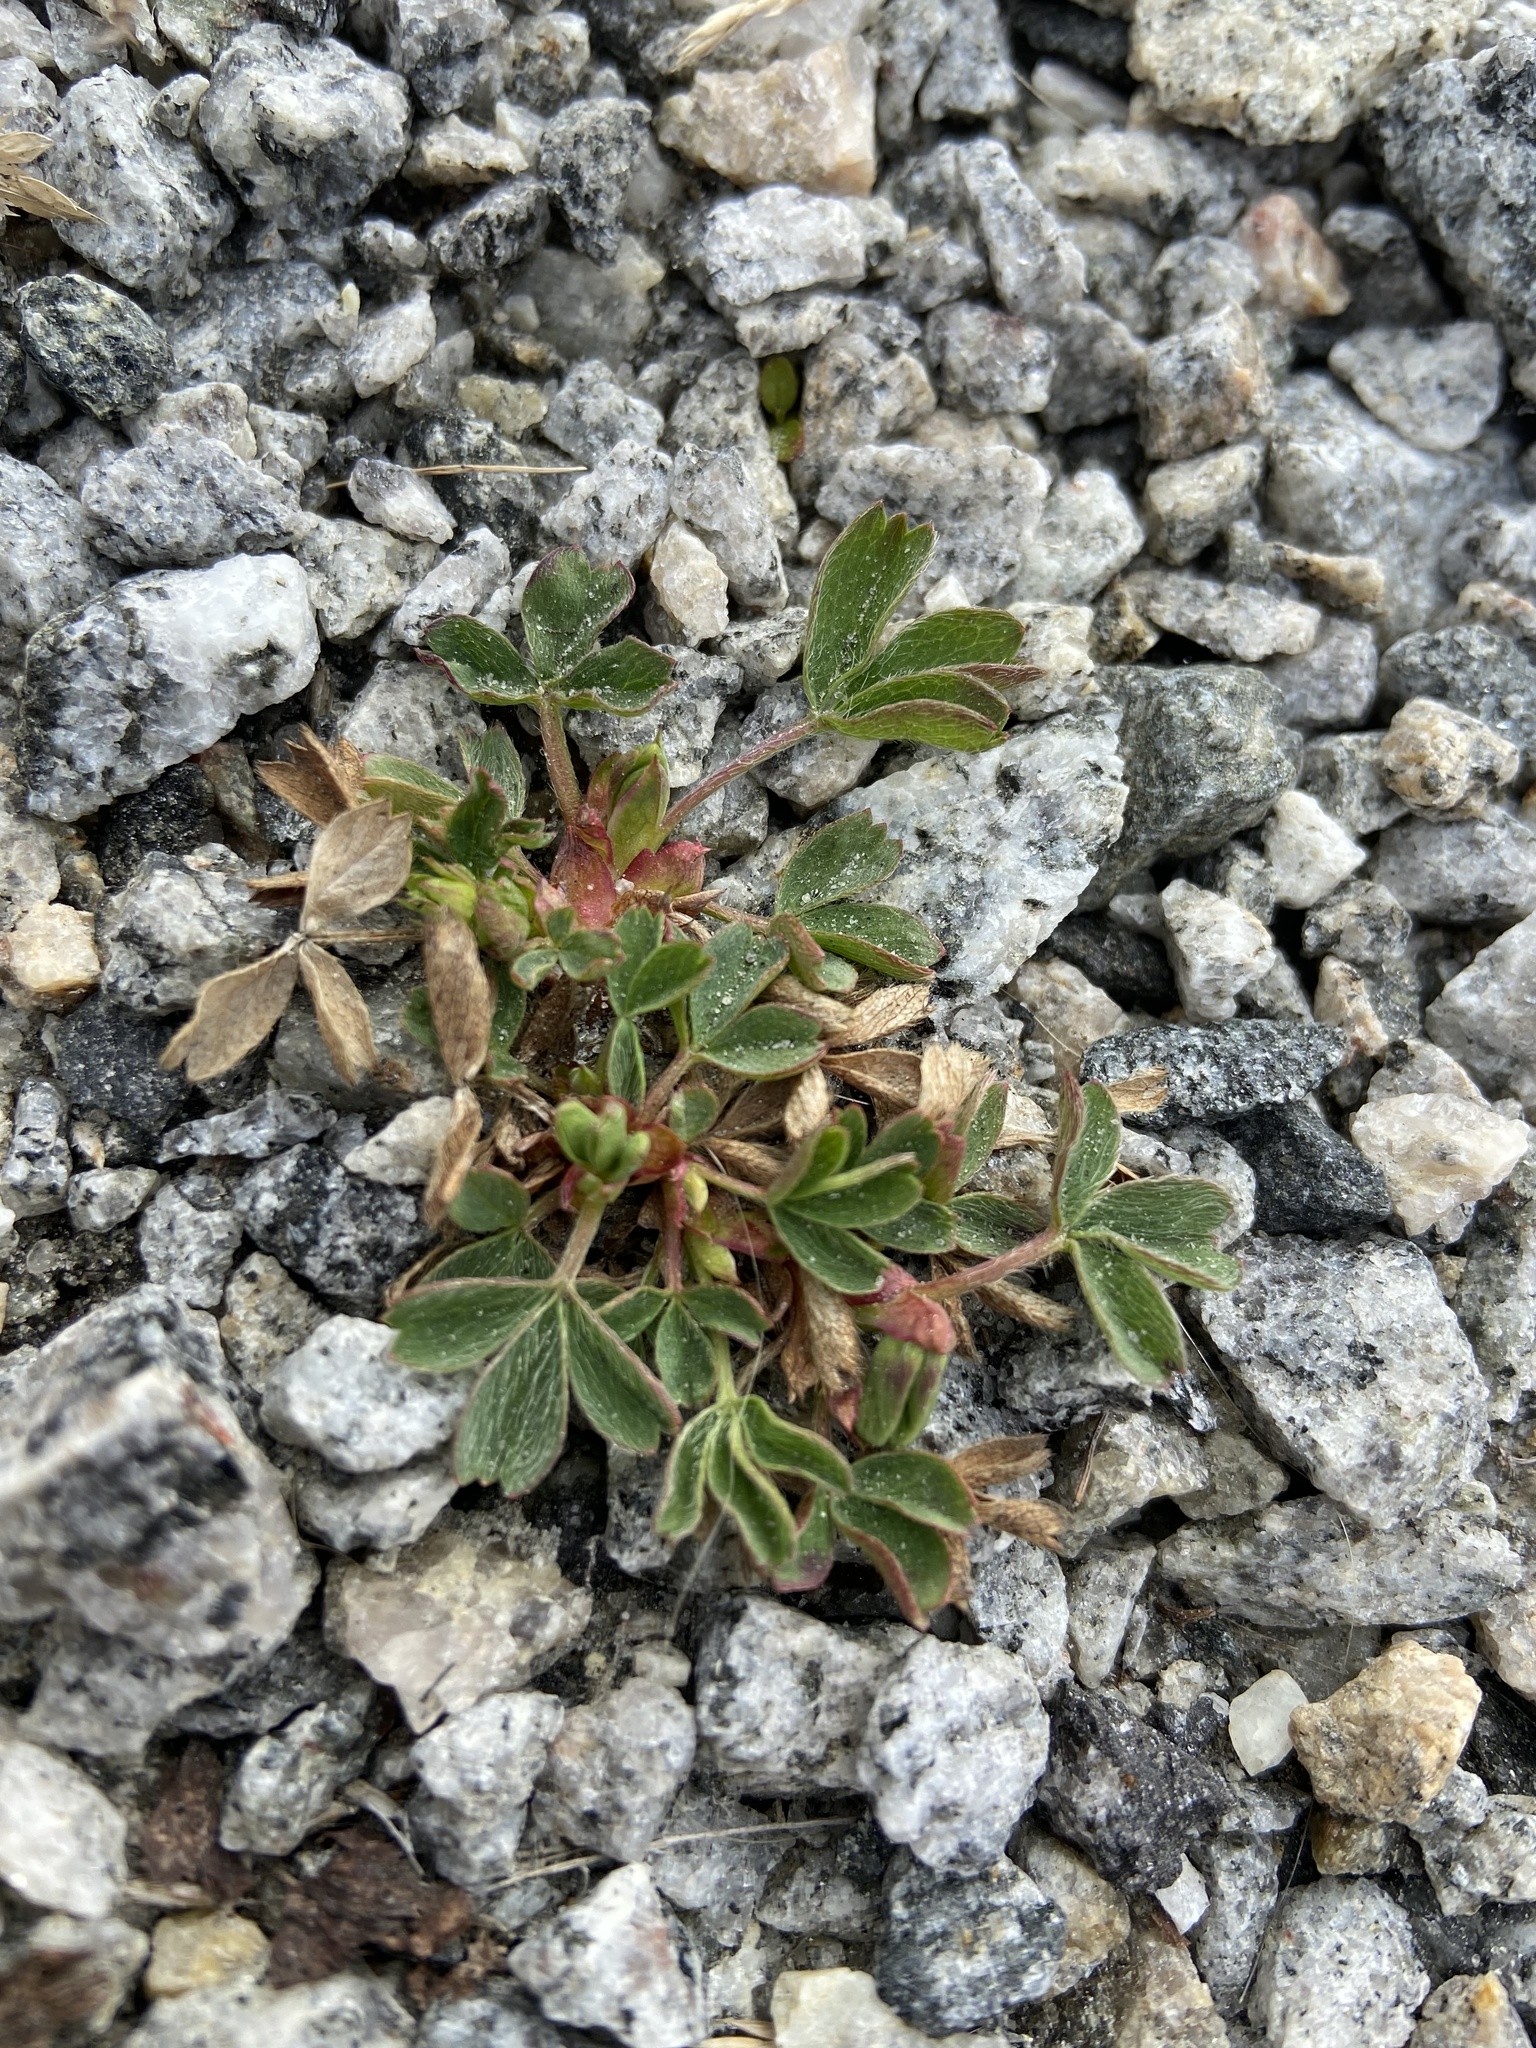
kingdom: Plantae
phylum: Tracheophyta
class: Magnoliopsida
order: Rosales
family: Rosaceae
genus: Sibbaldia
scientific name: Sibbaldia procumbens
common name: Creeping sibbaldia
